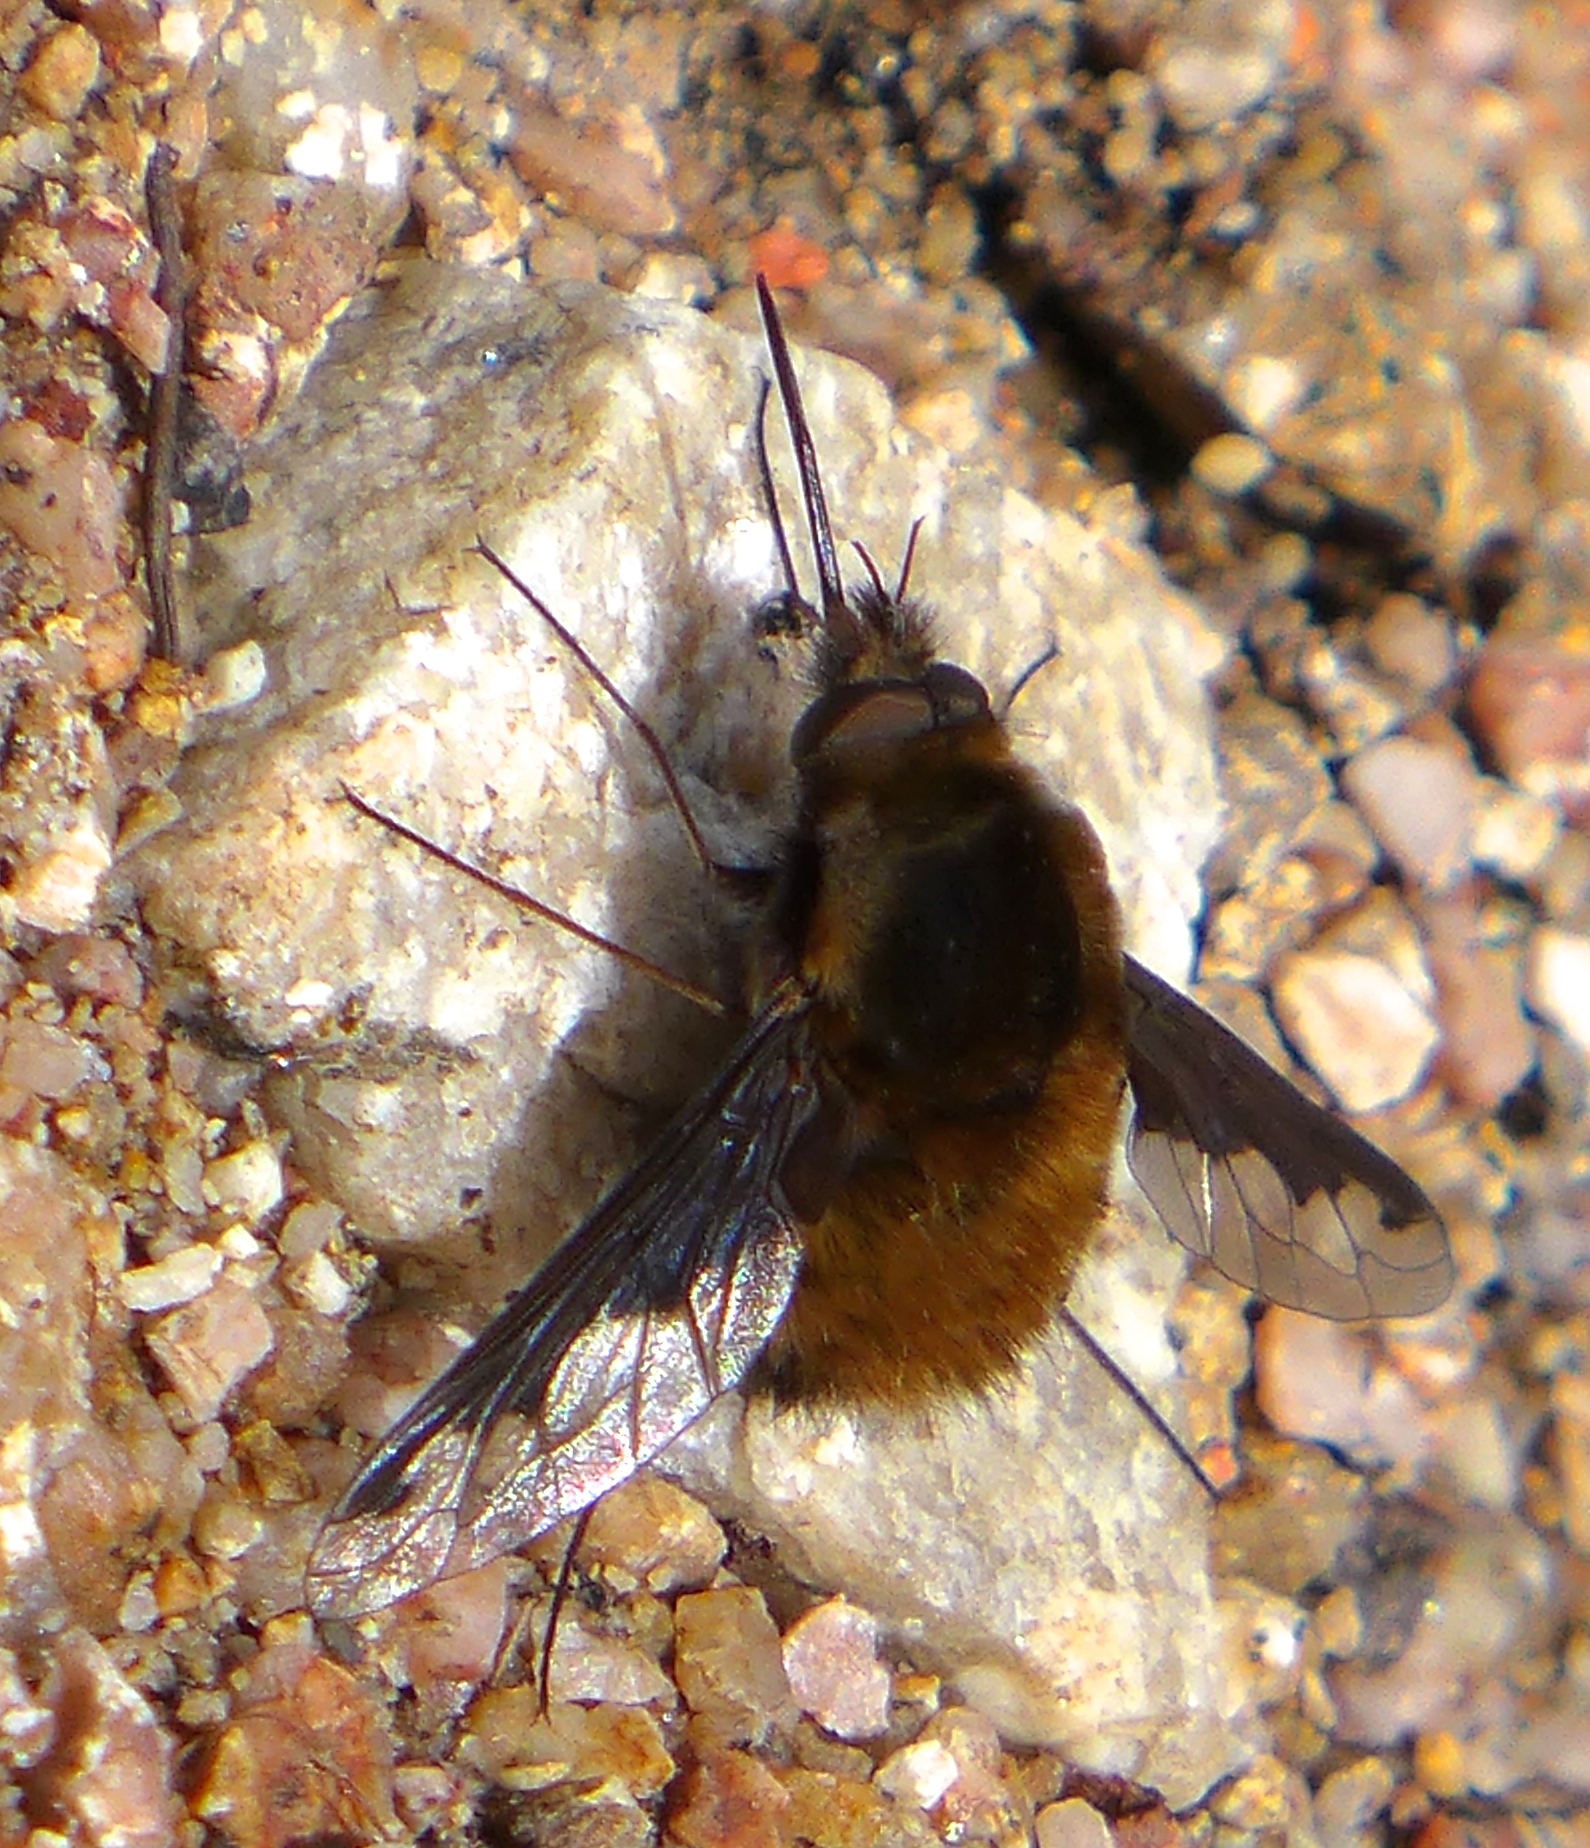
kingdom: Animalia
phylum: Arthropoda
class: Insecta
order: Diptera
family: Bombyliidae
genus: Bombylius
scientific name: Bombylius major
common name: Bee fly
